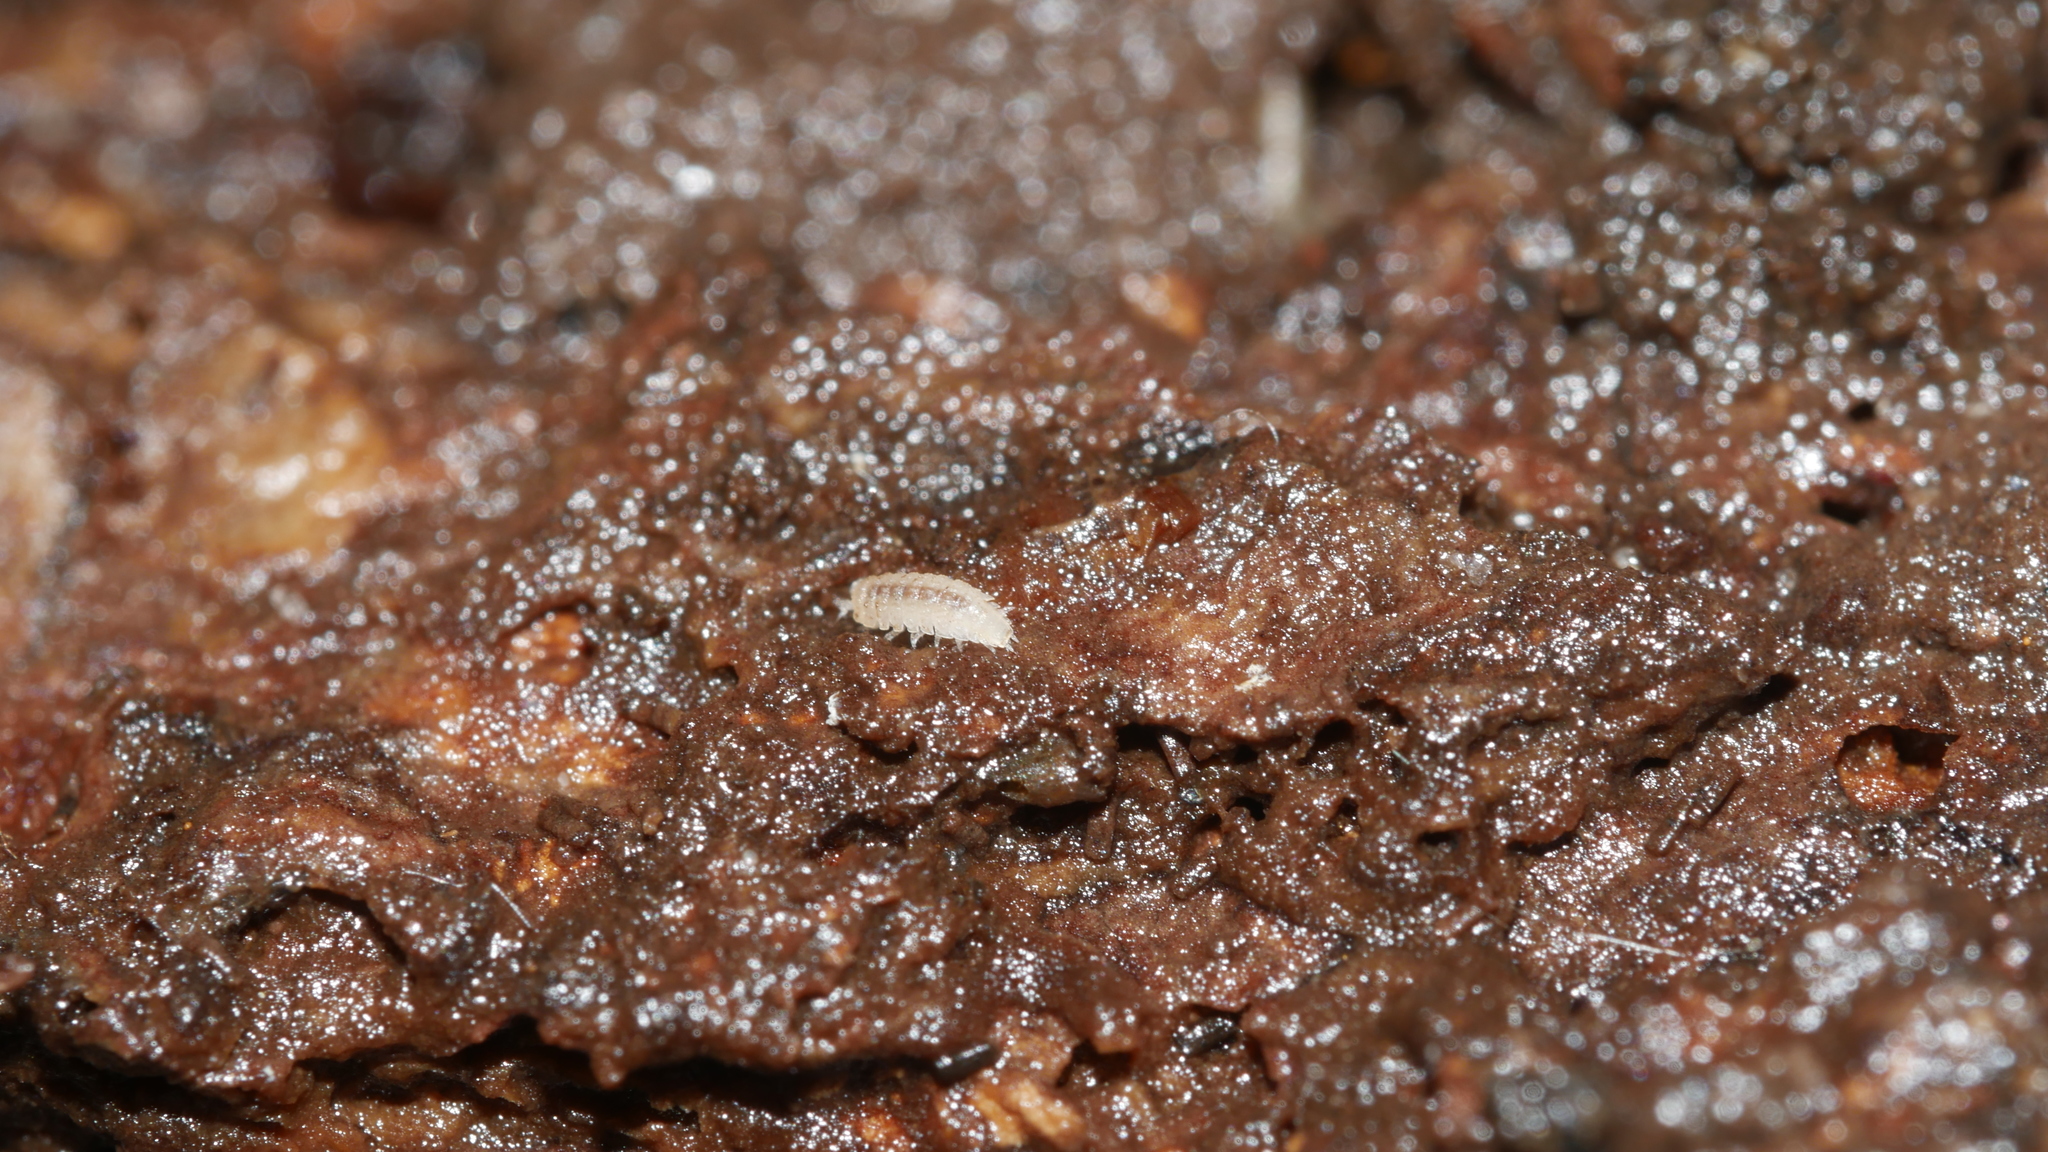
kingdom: Animalia
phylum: Arthropoda
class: Malacostraca
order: Isopoda
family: Trichoniscidae
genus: Haplophthalmus
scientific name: Haplophthalmus danicus
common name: Pillbug
